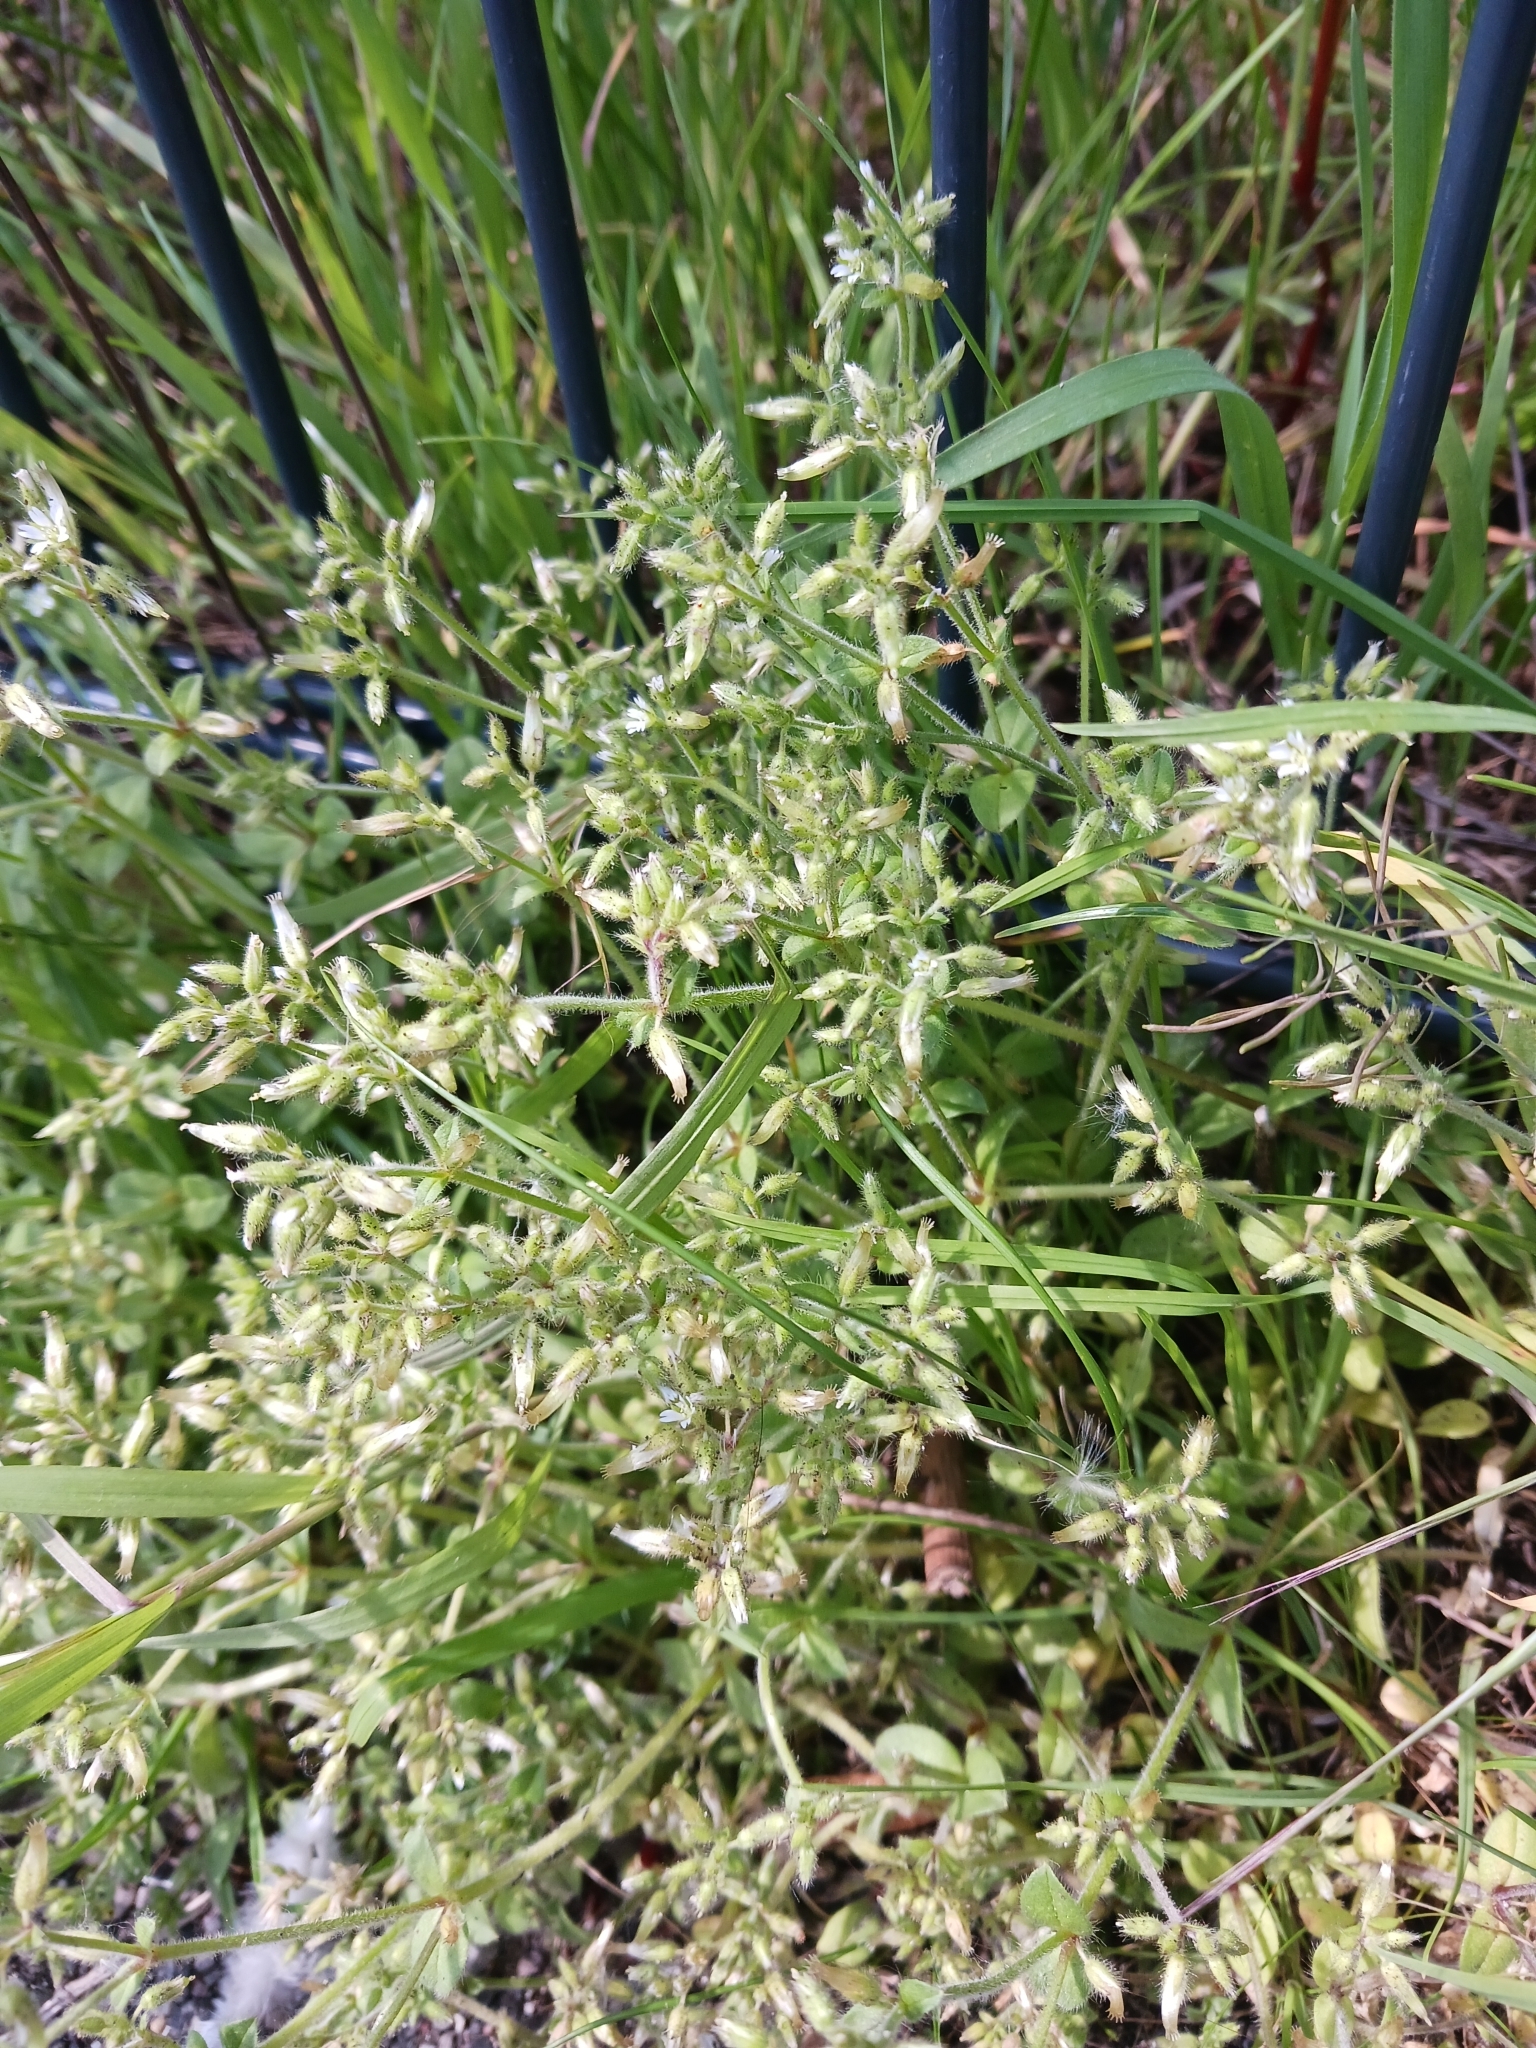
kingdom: Plantae
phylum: Tracheophyta
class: Magnoliopsida
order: Caryophyllales
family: Caryophyllaceae
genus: Cerastium
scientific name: Cerastium glomeratum
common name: Sticky chickweed
